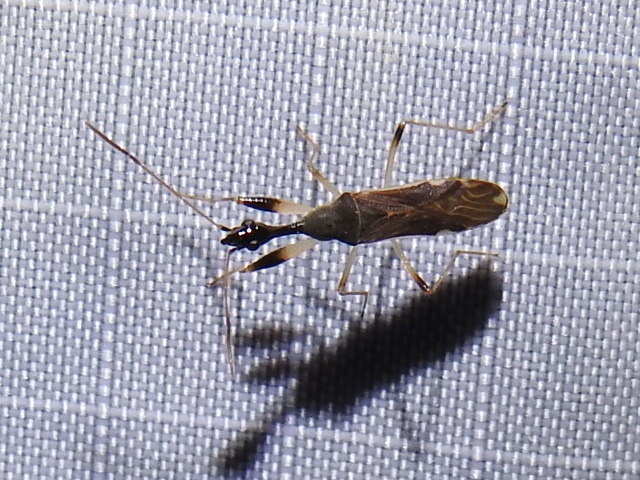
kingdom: Animalia
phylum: Arthropoda
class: Insecta
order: Hemiptera
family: Rhyparochromidae
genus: Myodocha
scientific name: Myodocha serripes
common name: Long-necked seed bug
